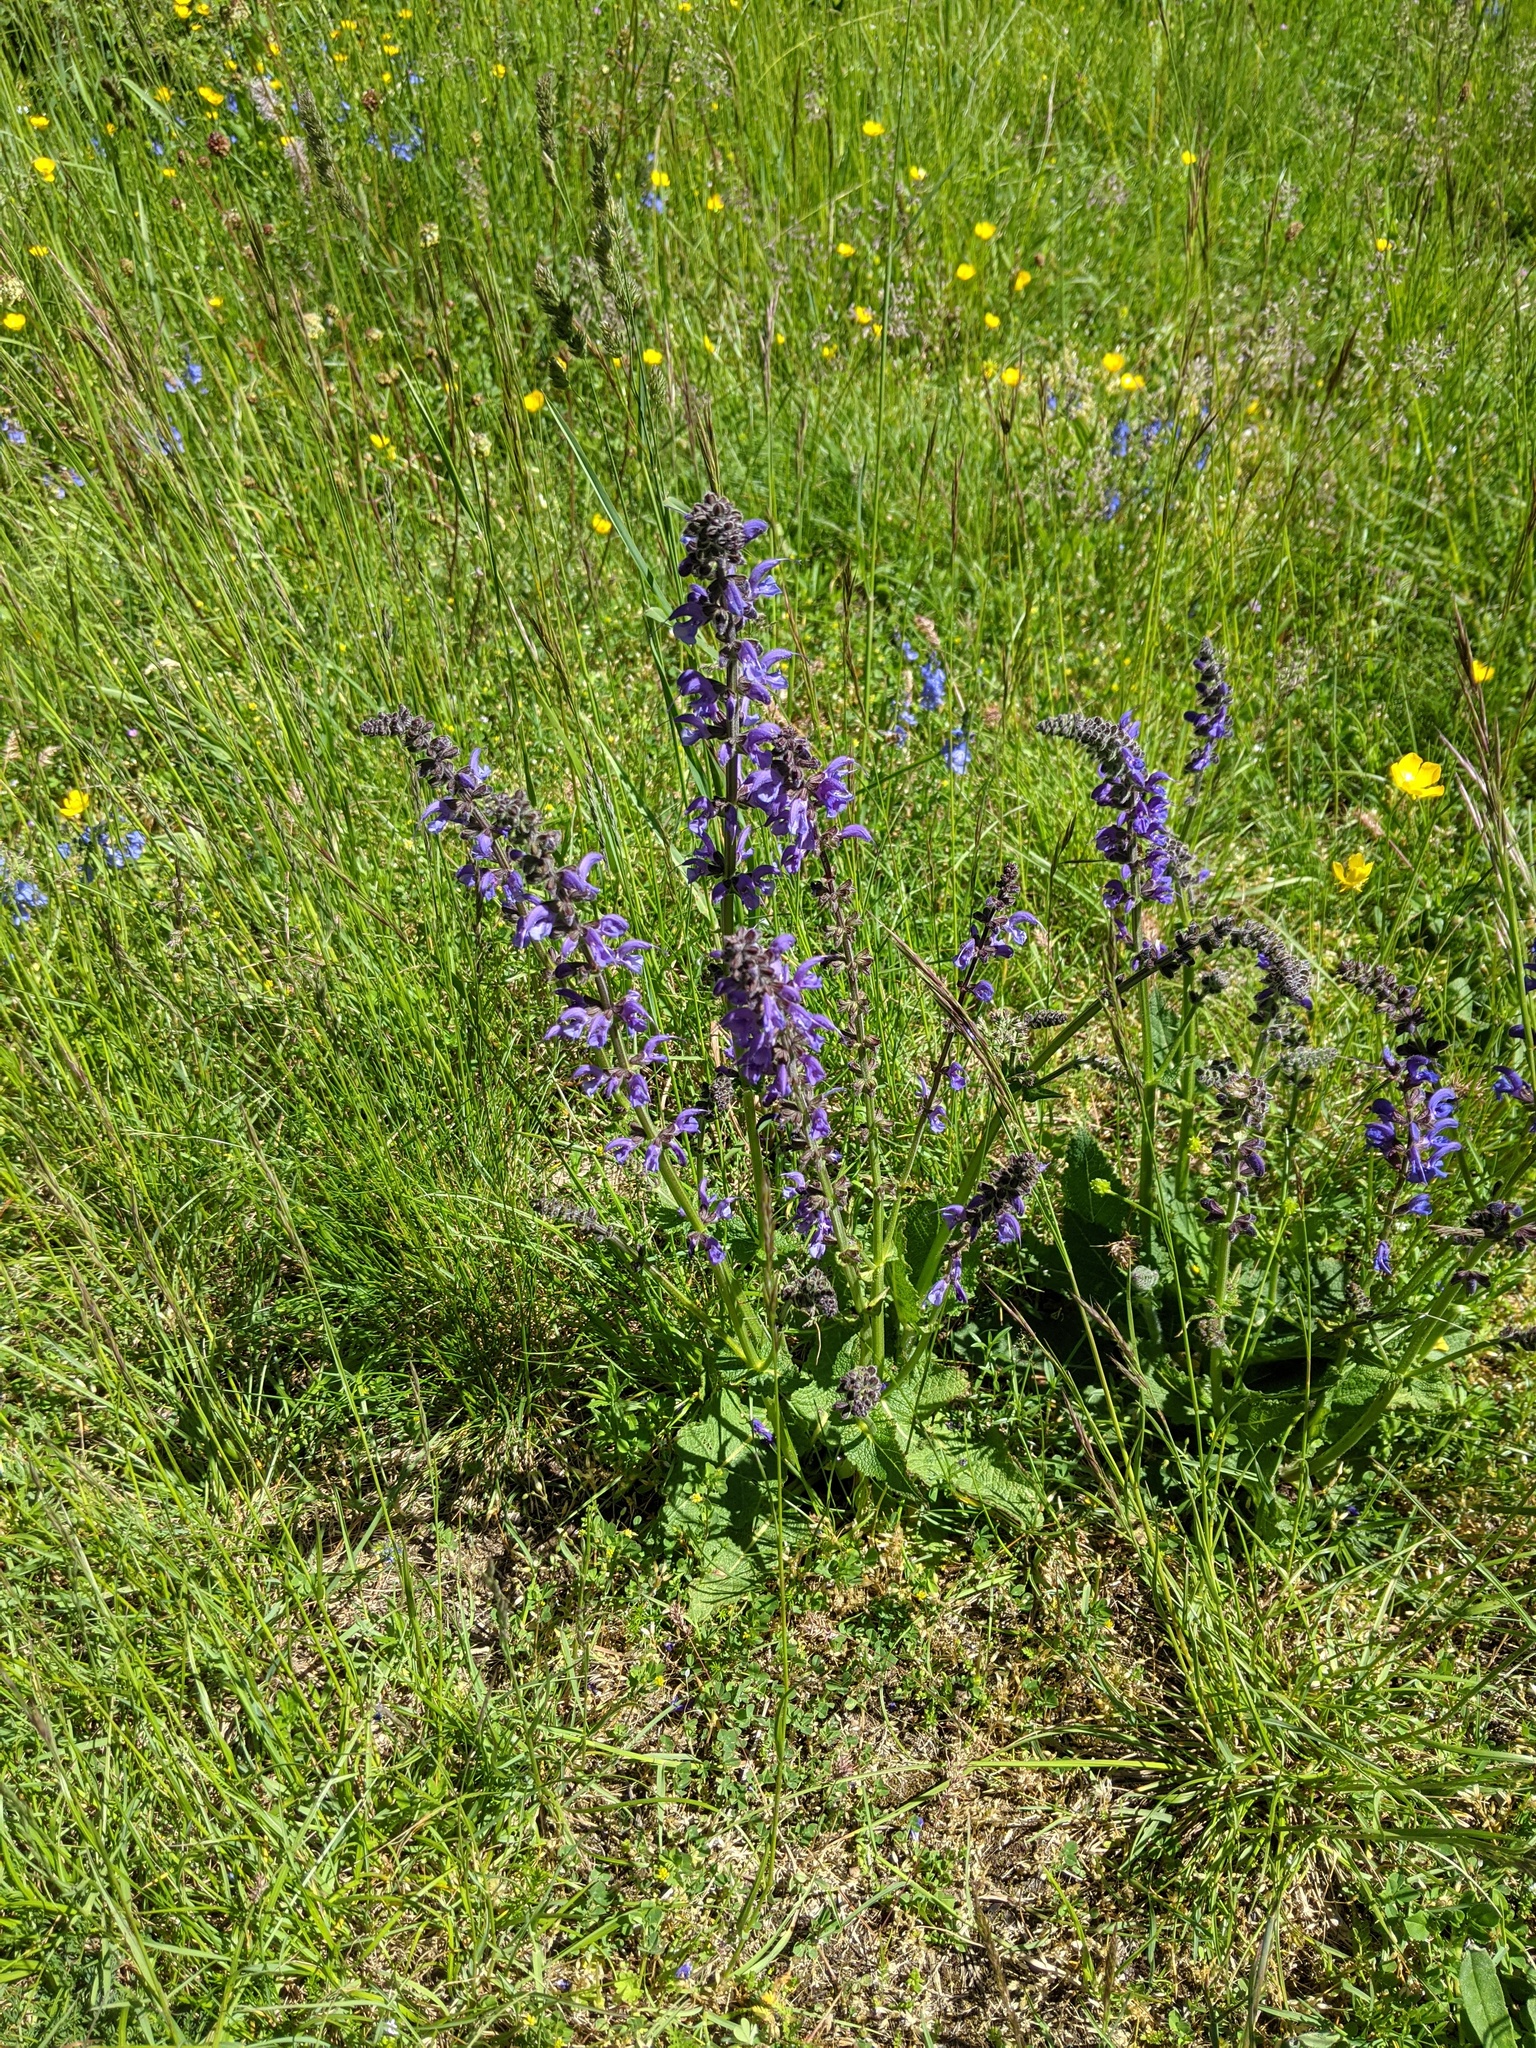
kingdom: Plantae
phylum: Tracheophyta
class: Magnoliopsida
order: Lamiales
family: Lamiaceae
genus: Salvia
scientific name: Salvia pratensis
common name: Meadow sage
